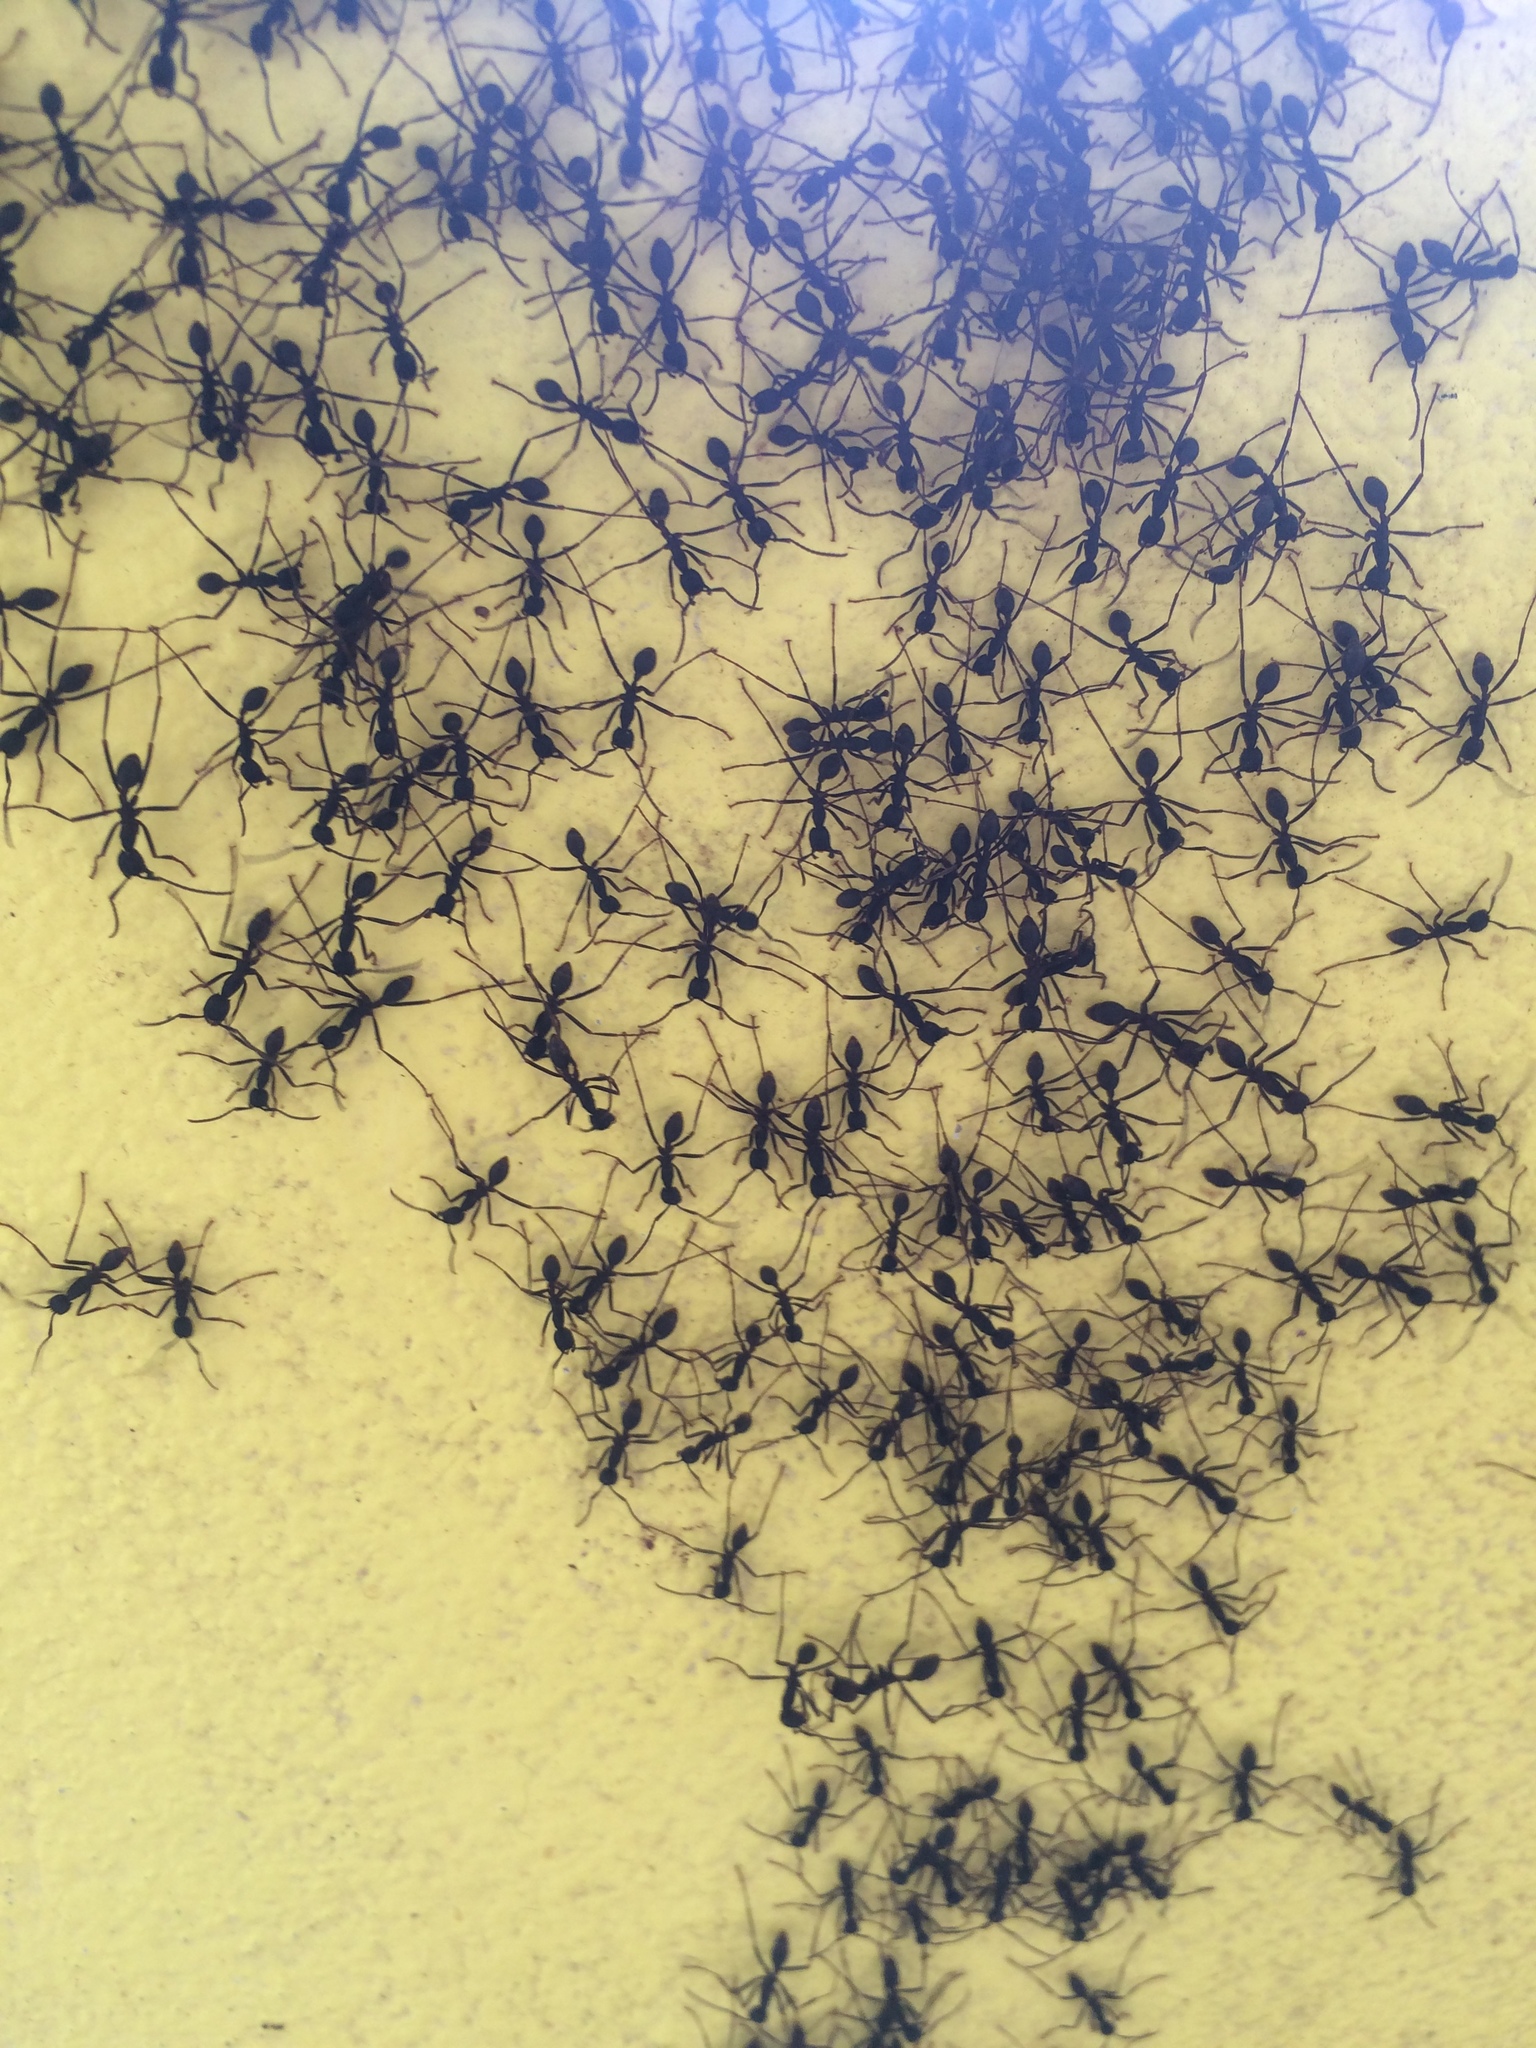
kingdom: Animalia
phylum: Arthropoda
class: Insecta
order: Hymenoptera
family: Formicidae
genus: Eciton
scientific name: Eciton burchellii
